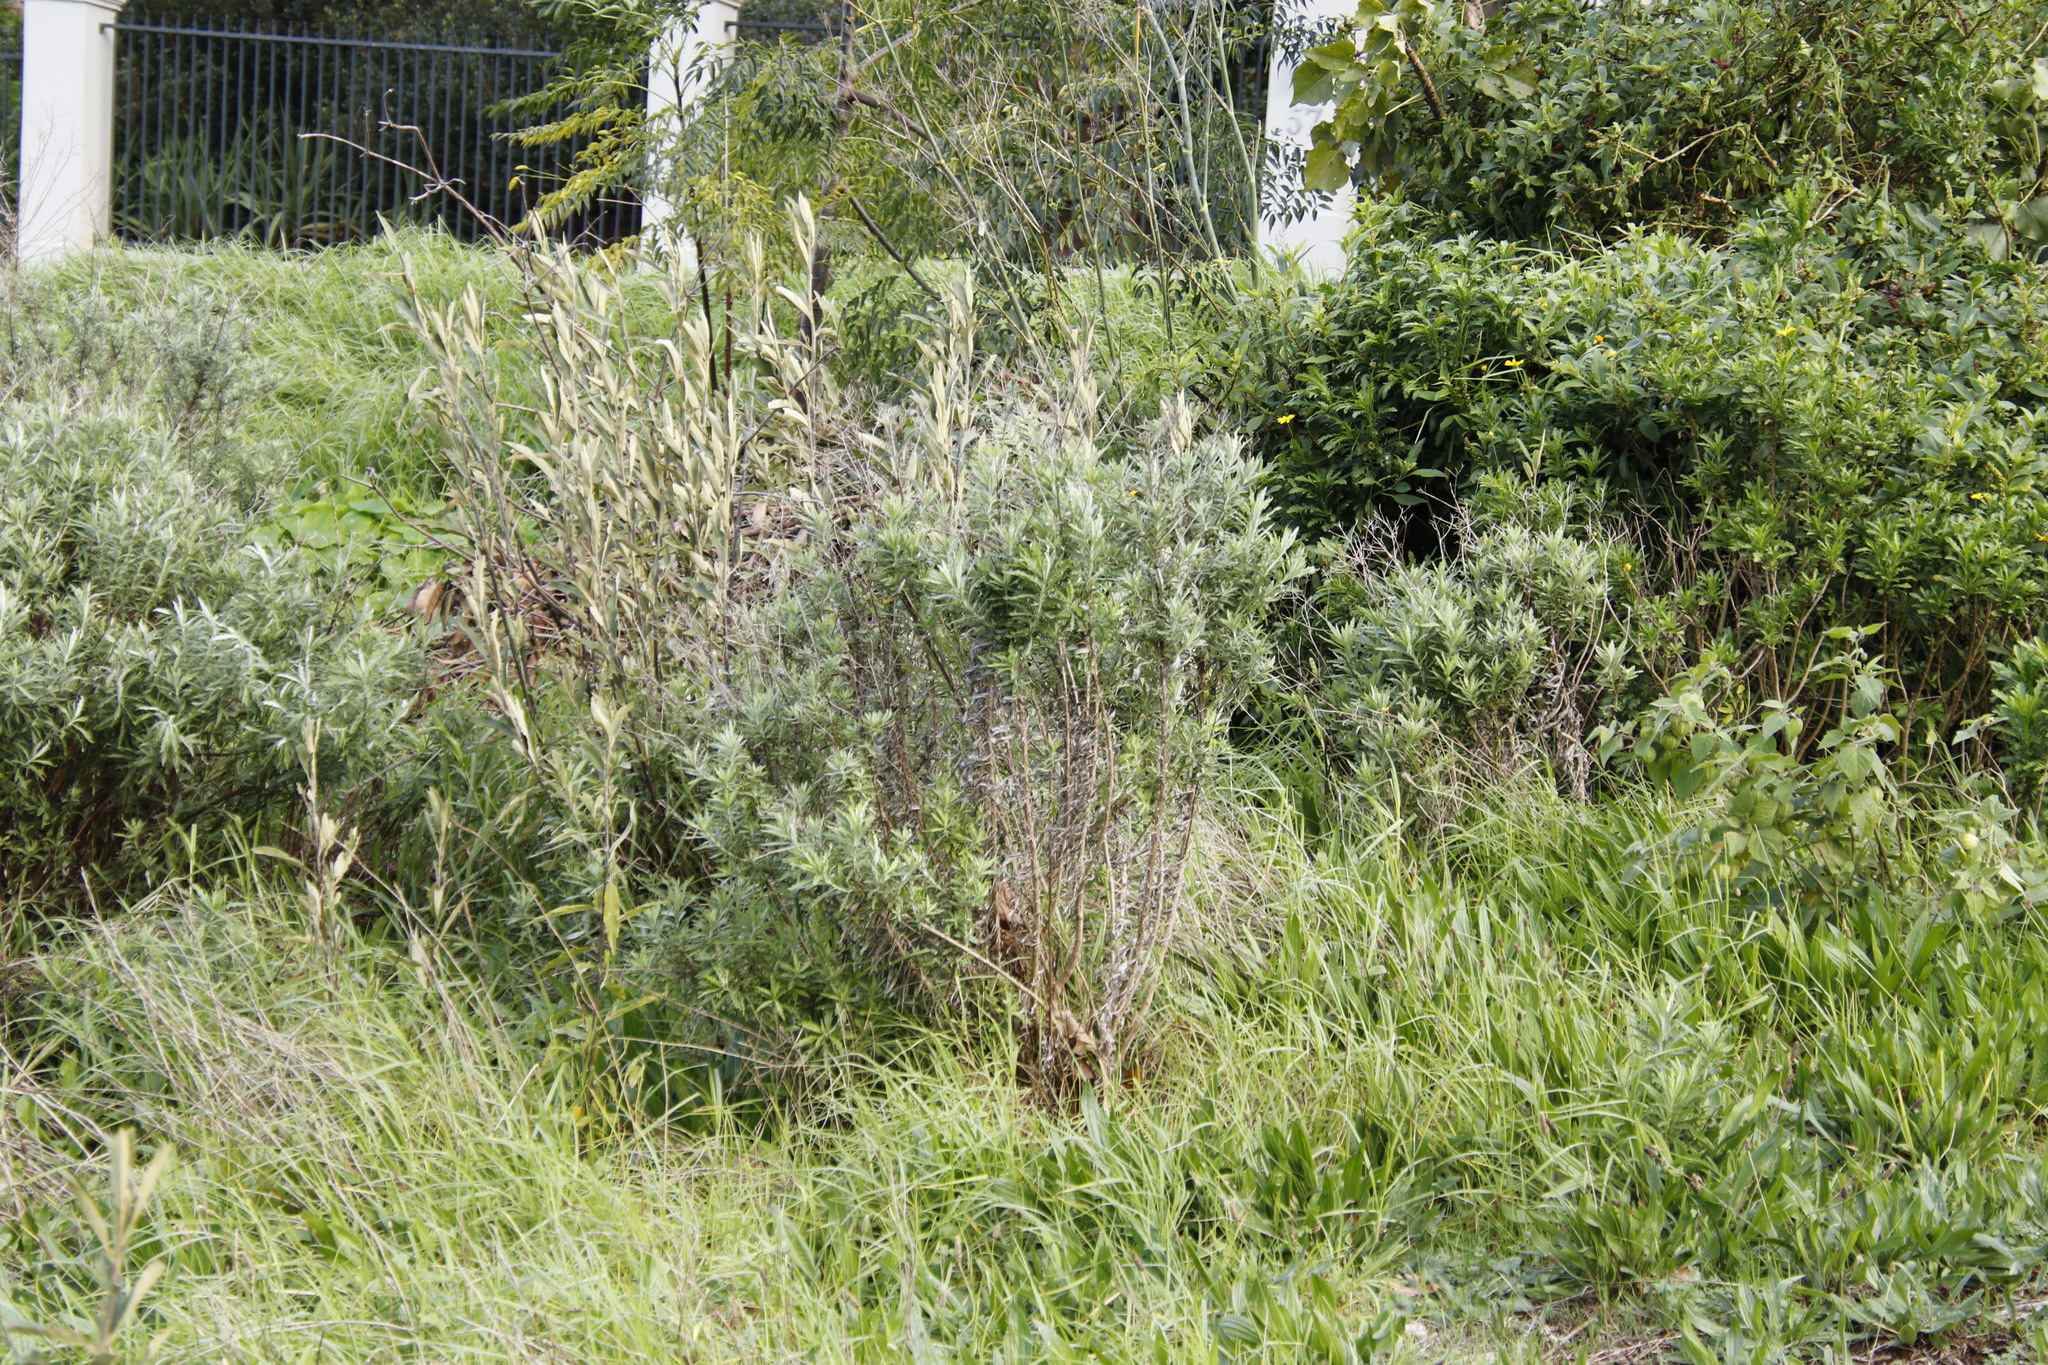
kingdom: Plantae
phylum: Tracheophyta
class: Magnoliopsida
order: Asterales
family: Asteraceae
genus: Senecio
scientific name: Senecio pterophorus
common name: Shoddy ragwort
